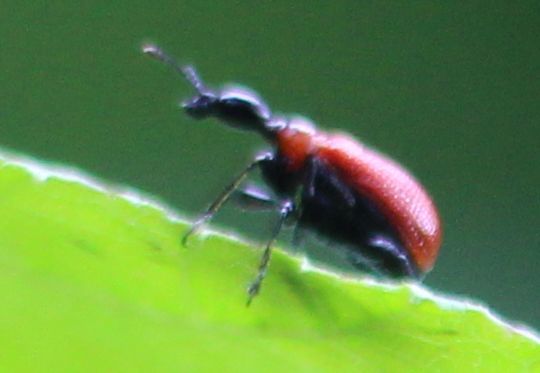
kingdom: Animalia
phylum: Arthropoda
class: Insecta
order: Coleoptera
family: Attelabidae
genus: Apoderus
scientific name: Apoderus coryli
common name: Hazel leaf roller
